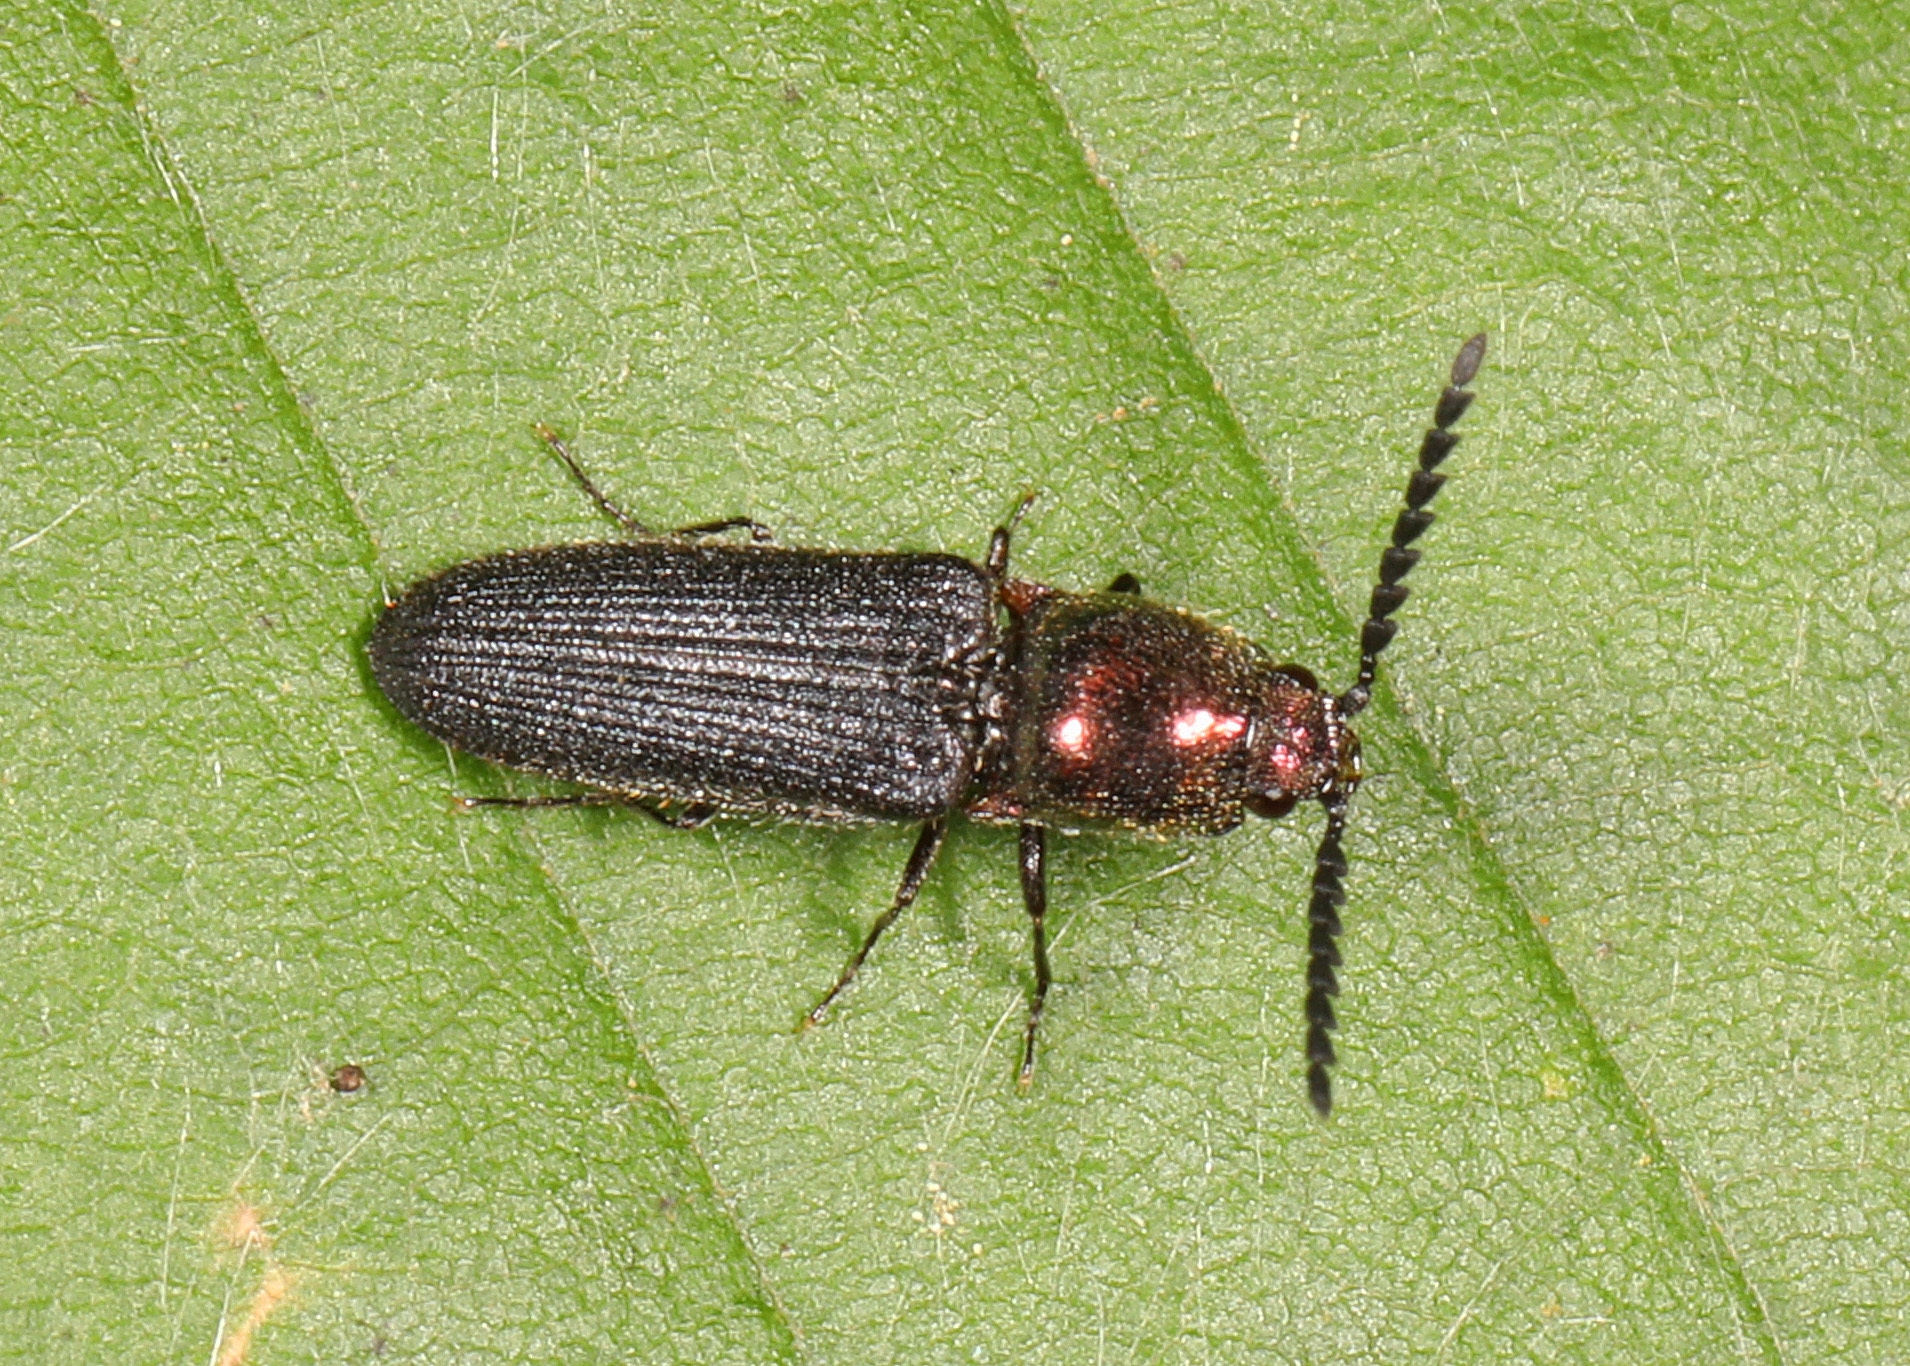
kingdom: Animalia
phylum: Arthropoda
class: Insecta
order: Coleoptera
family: Elateridae
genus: Limonius
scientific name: Limonius aurifer
